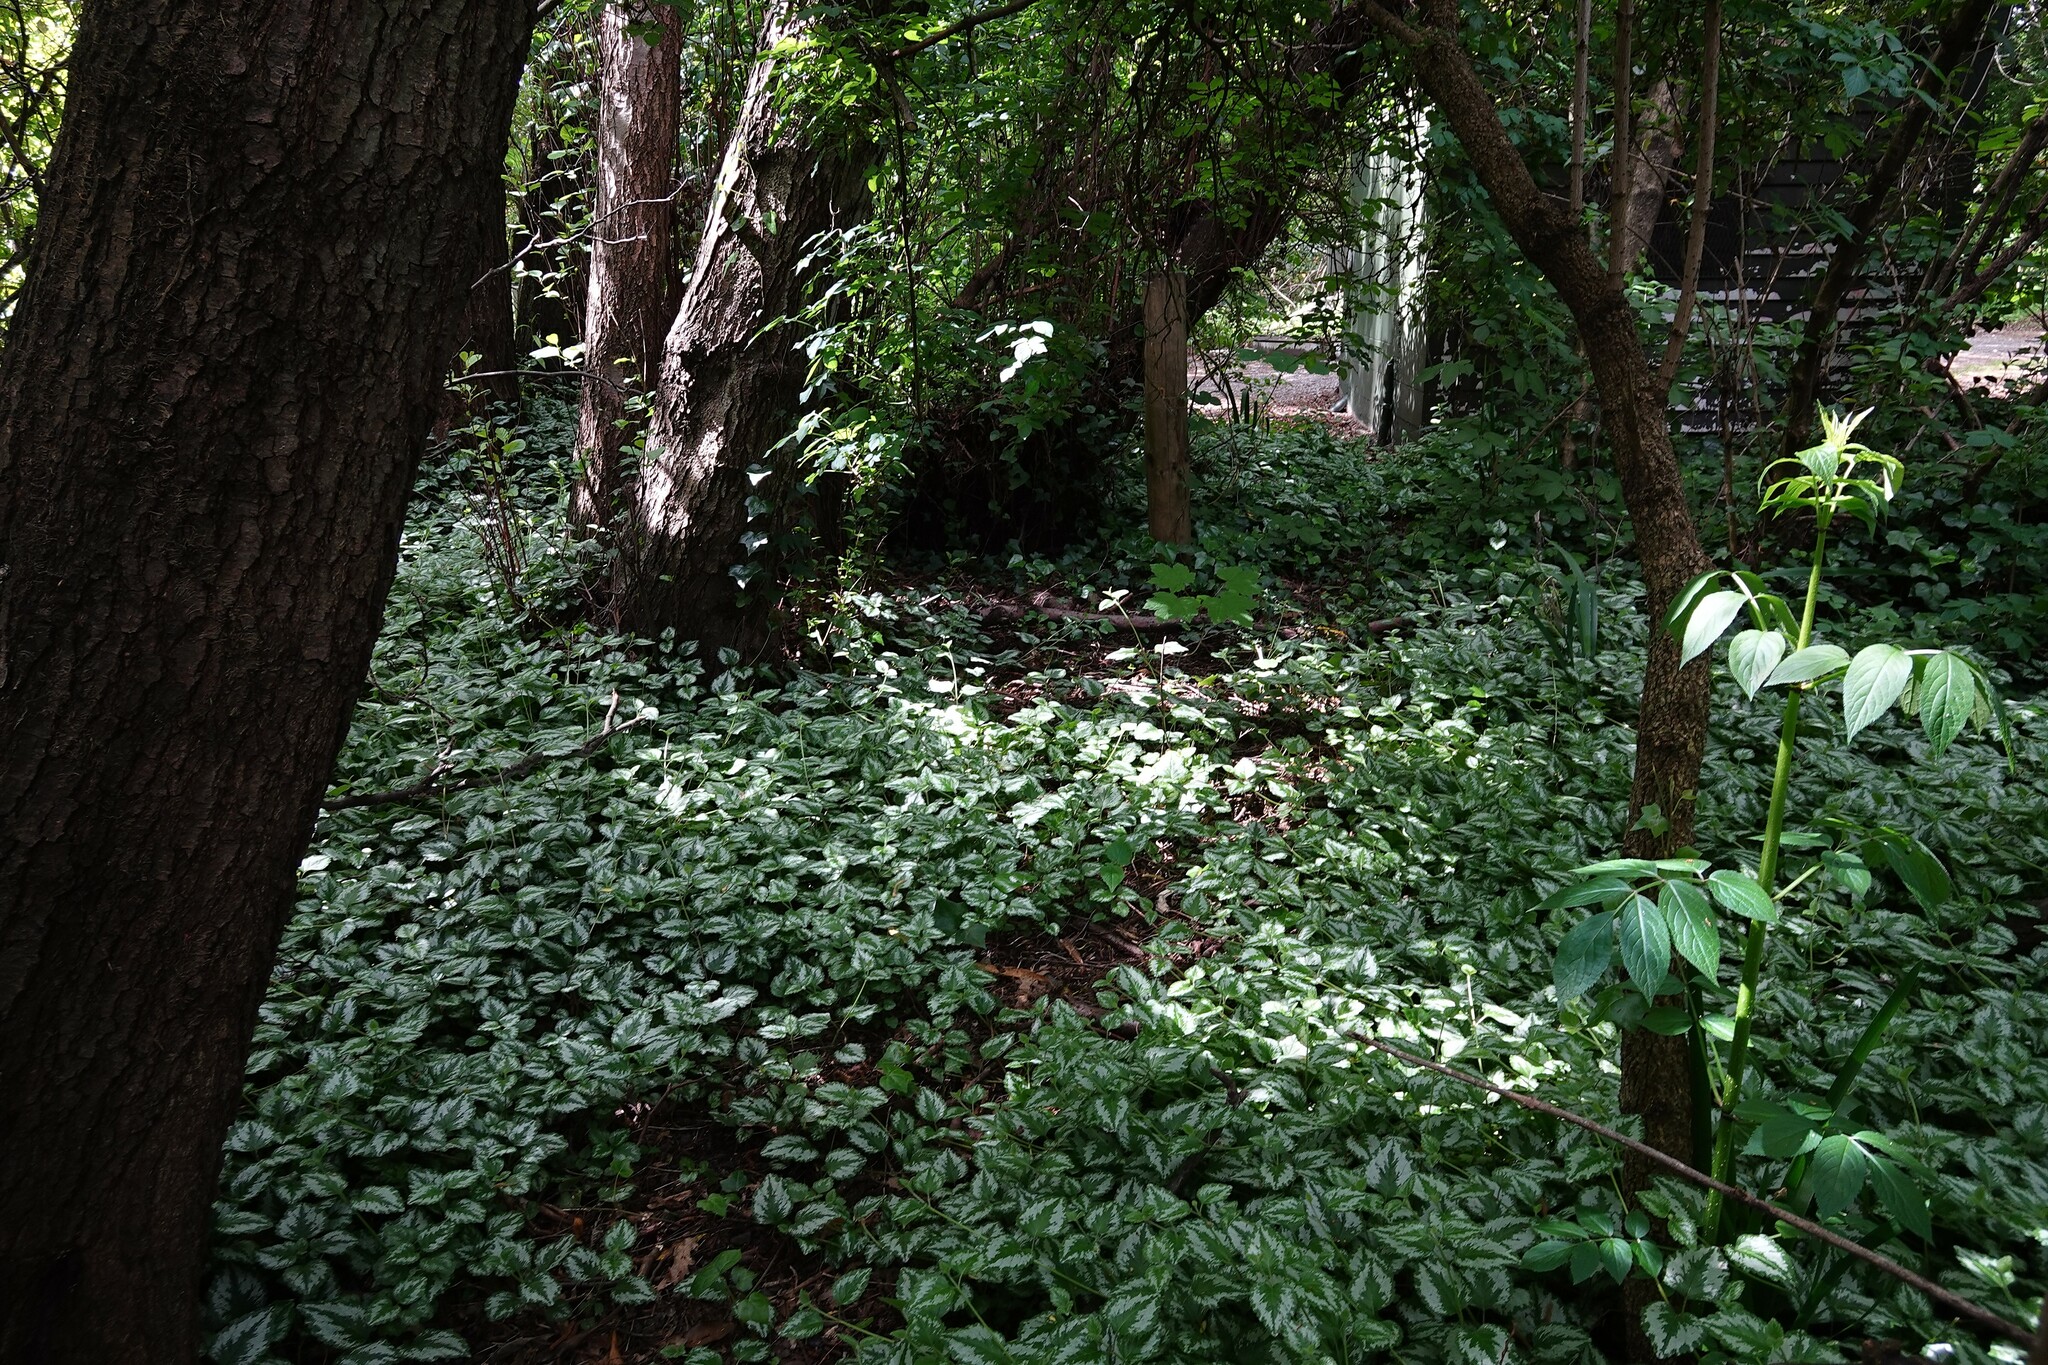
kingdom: Plantae
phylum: Tracheophyta
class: Magnoliopsida
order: Lamiales
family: Lamiaceae
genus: Lamium
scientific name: Lamium galeobdolon
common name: Yellow archangel
